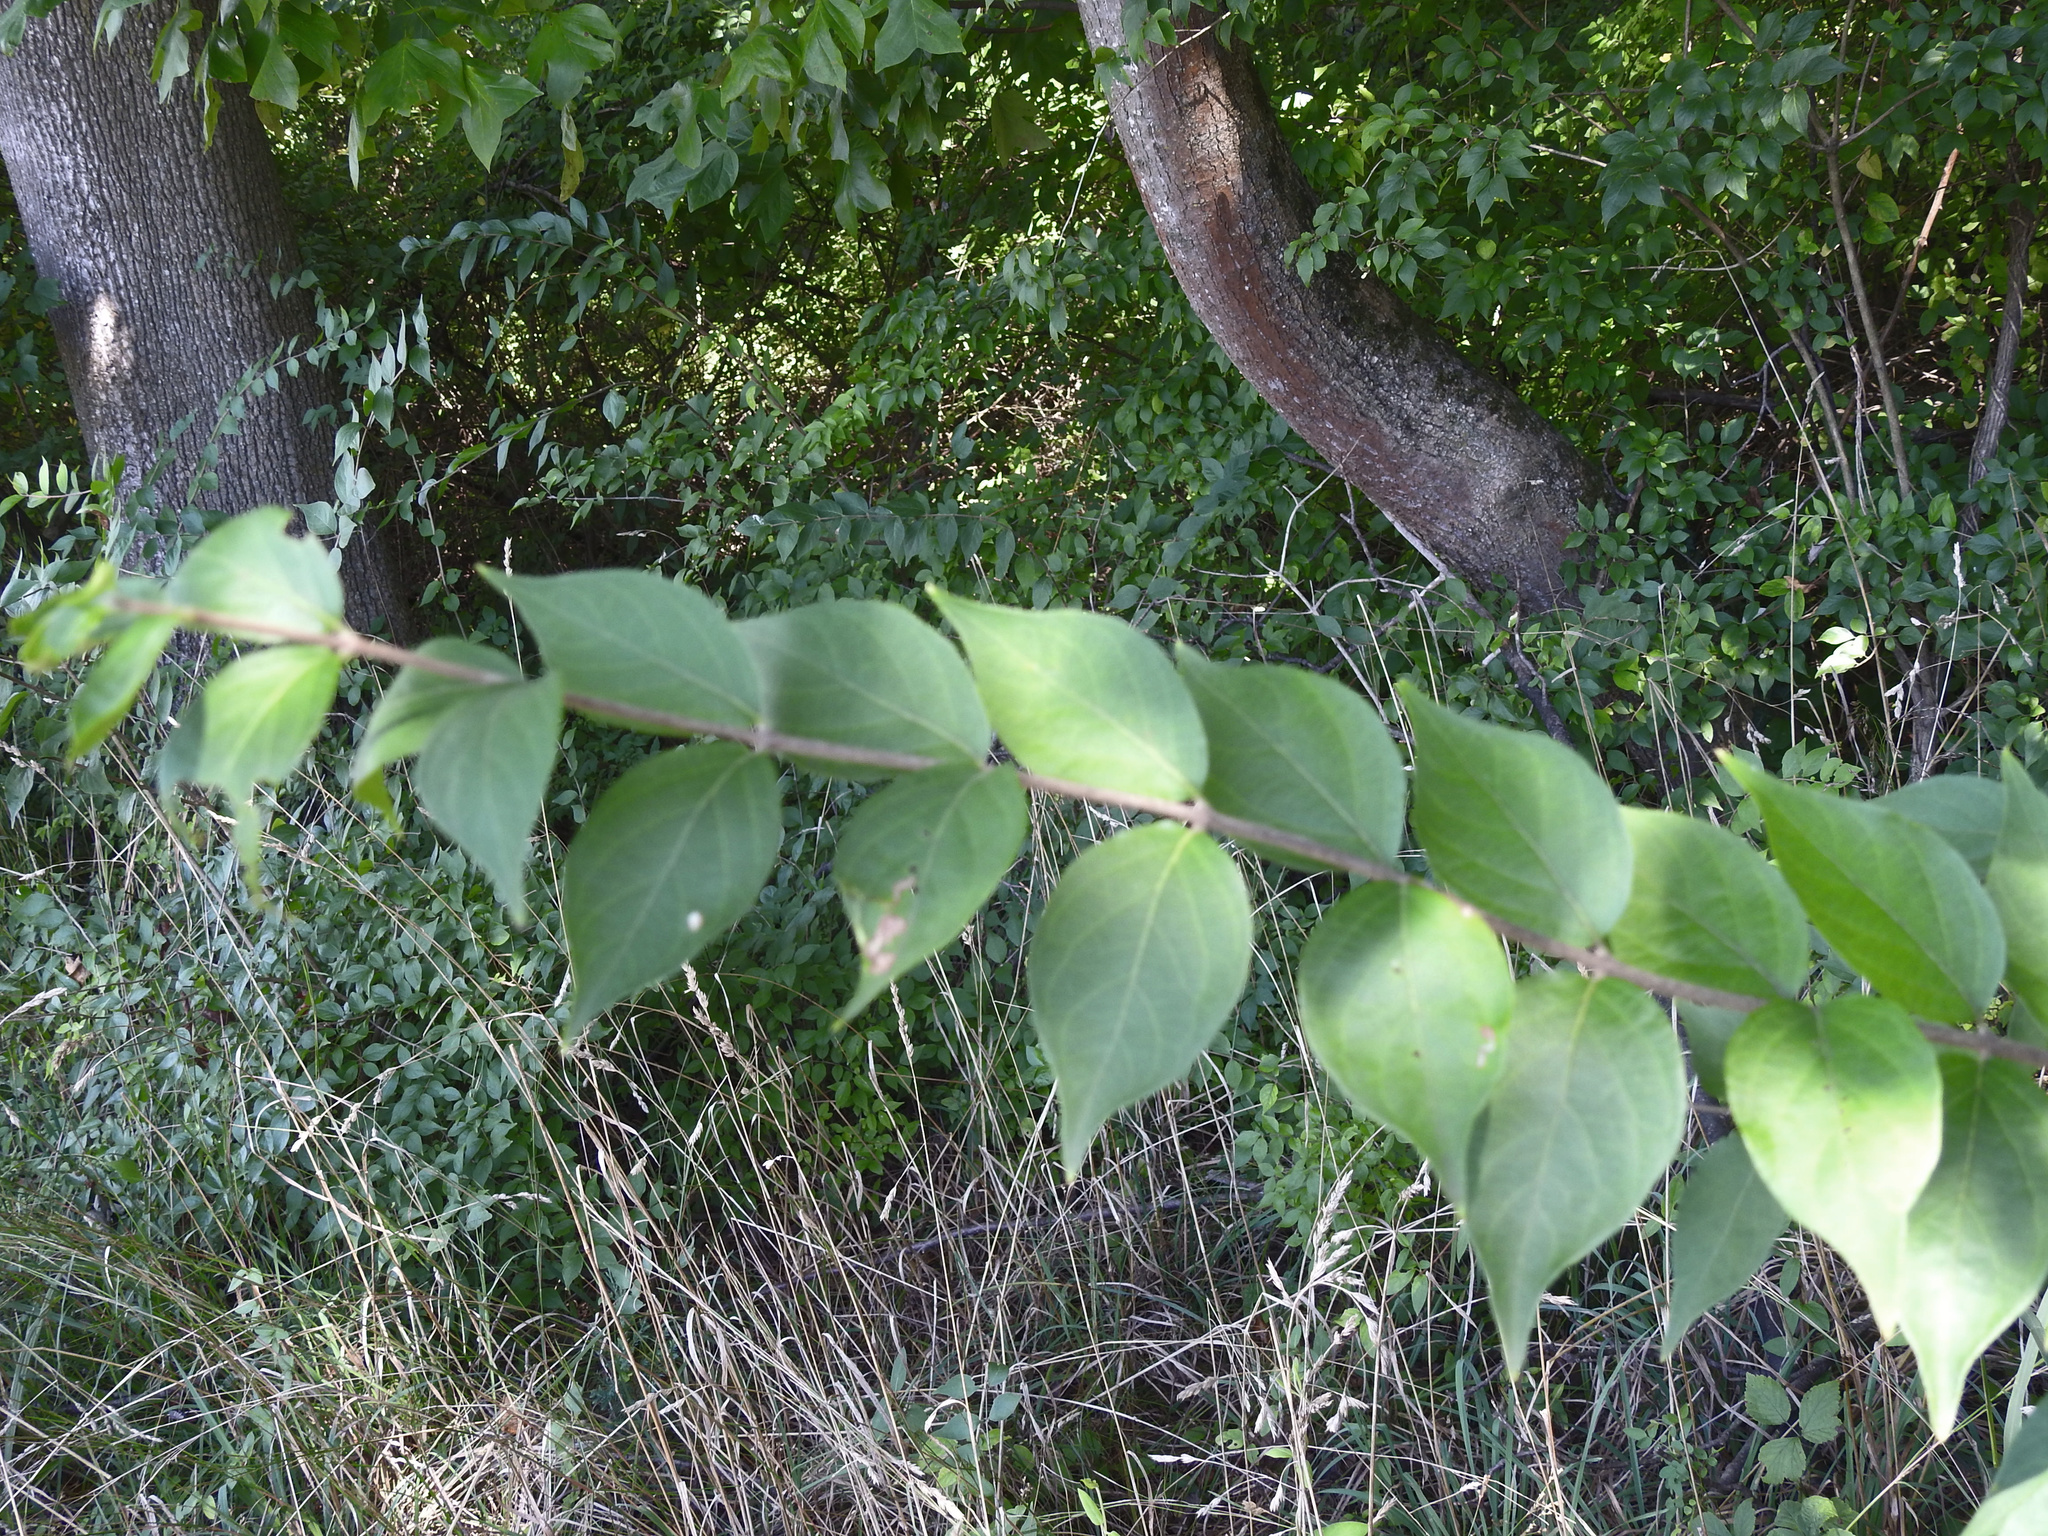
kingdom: Plantae
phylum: Tracheophyta
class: Magnoliopsida
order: Dipsacales
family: Caprifoliaceae
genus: Lonicera
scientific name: Lonicera maackii
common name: Amur honeysuckle
